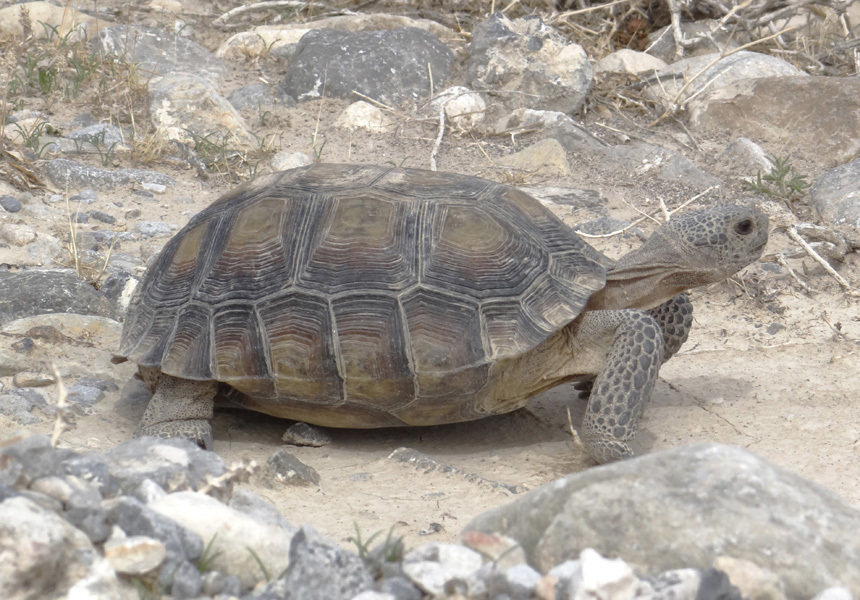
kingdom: Animalia
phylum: Chordata
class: Testudines
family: Testudinidae
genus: Gopherus
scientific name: Gopherus agassizii
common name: Mojave desert tortoise
